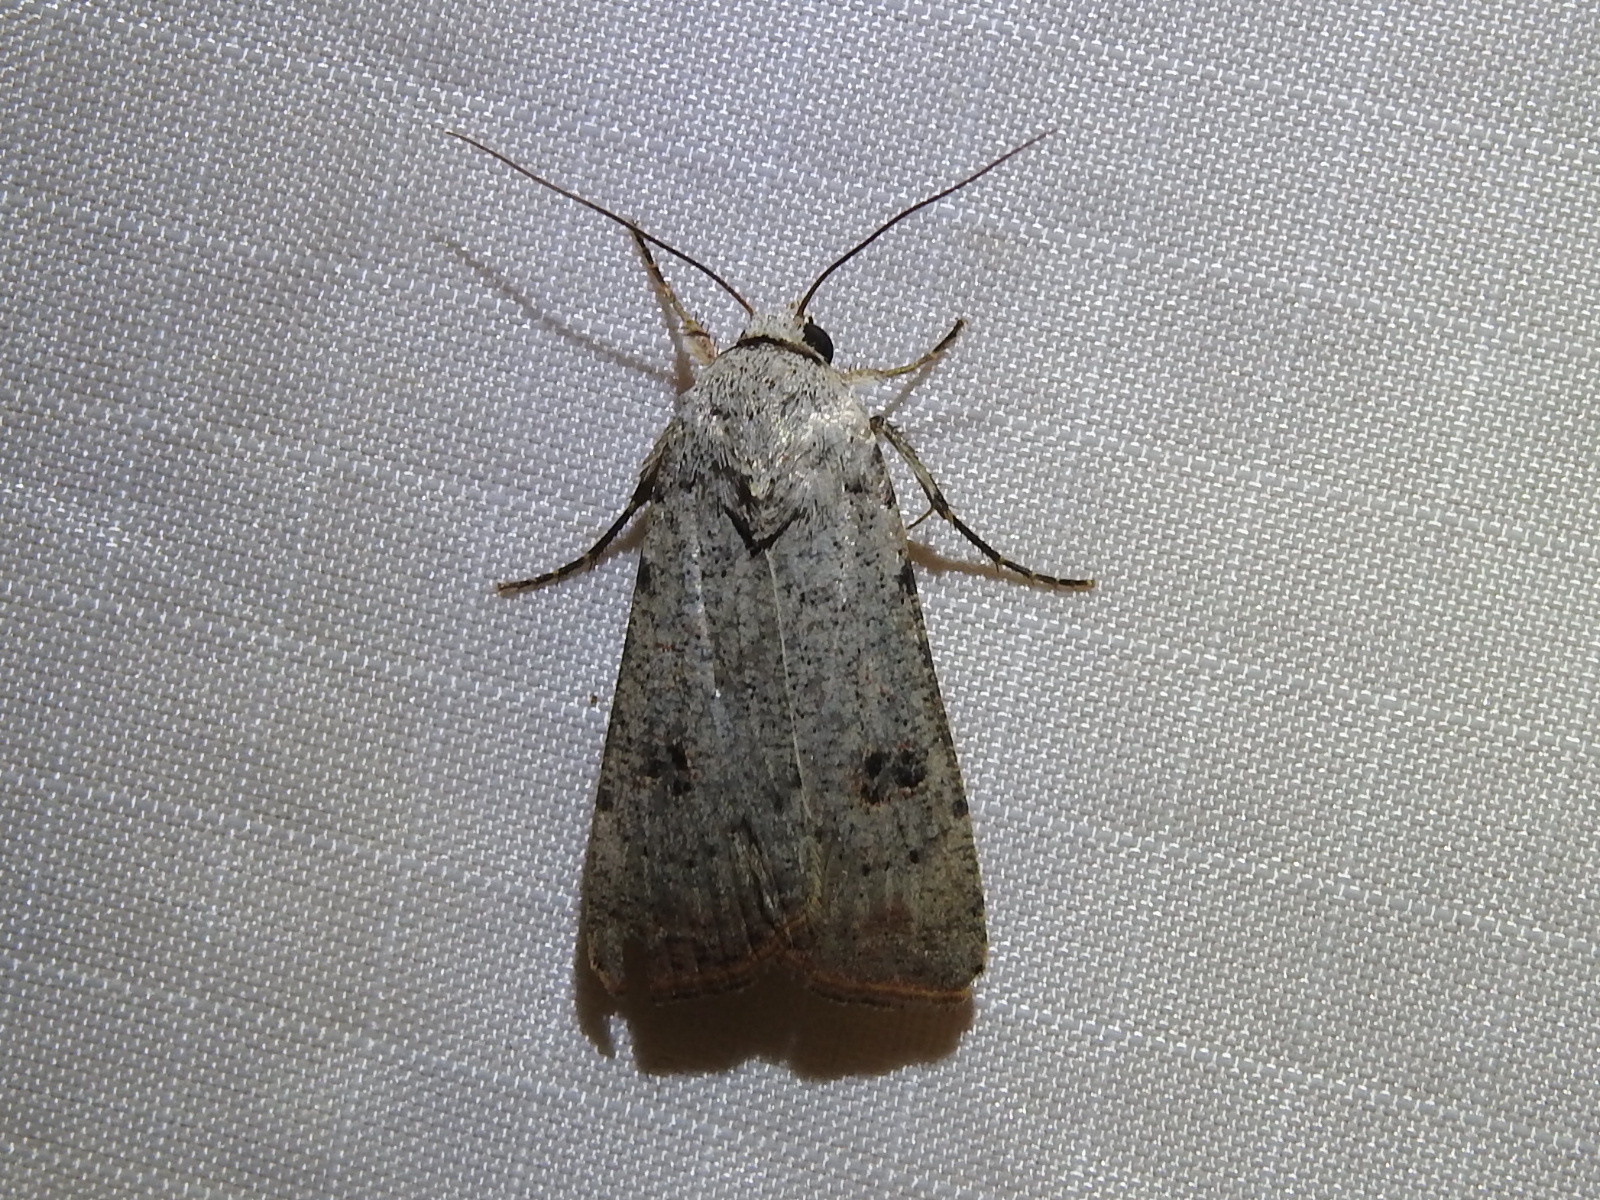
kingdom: Animalia
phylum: Arthropoda
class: Insecta
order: Lepidoptera
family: Noctuidae
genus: Anicla
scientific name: Anicla infecta
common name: Green cutworm
